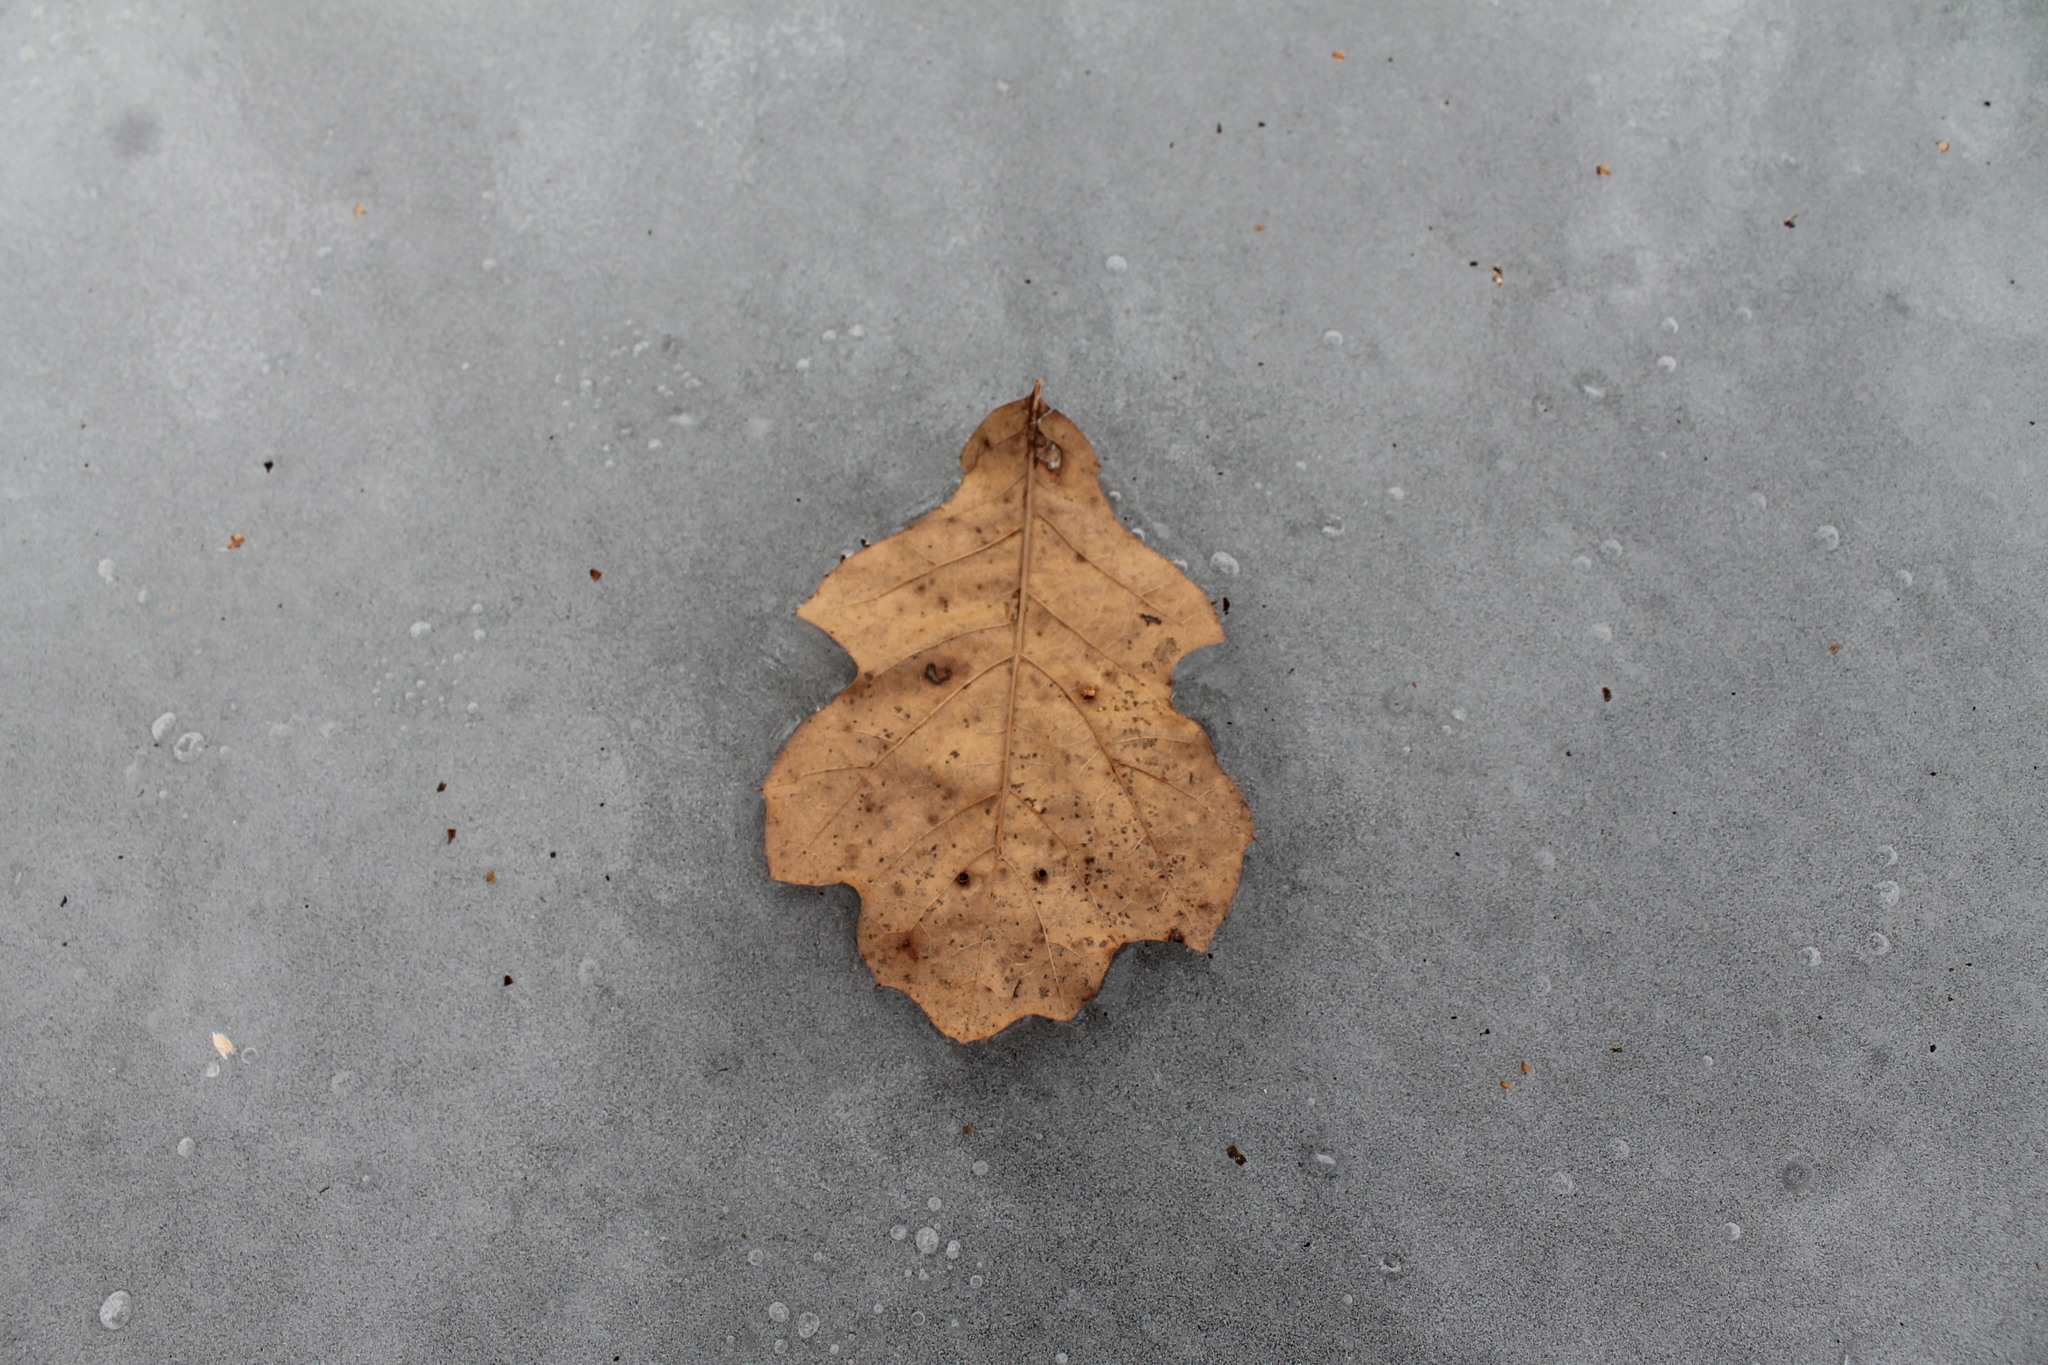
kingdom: Plantae
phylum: Tracheophyta
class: Magnoliopsida
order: Fagales
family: Fagaceae
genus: Quercus
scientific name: Quercus alba
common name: White oak
